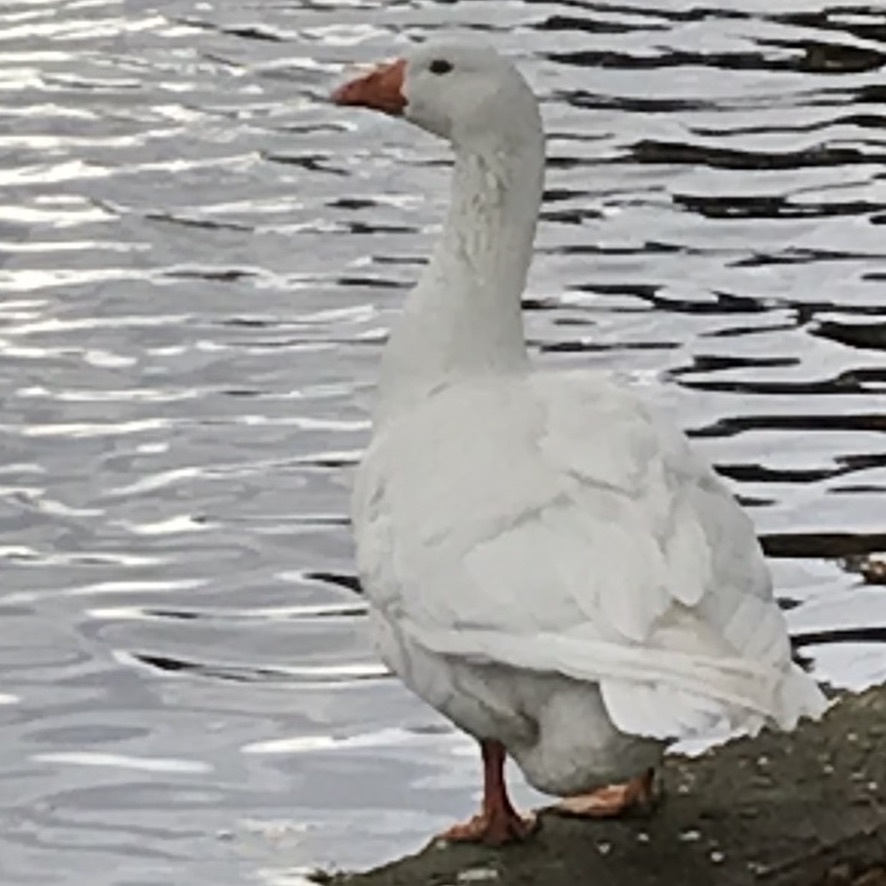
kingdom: Animalia
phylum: Chordata
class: Aves
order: Anseriformes
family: Anatidae
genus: Anser
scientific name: Anser anser
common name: Greylag goose
